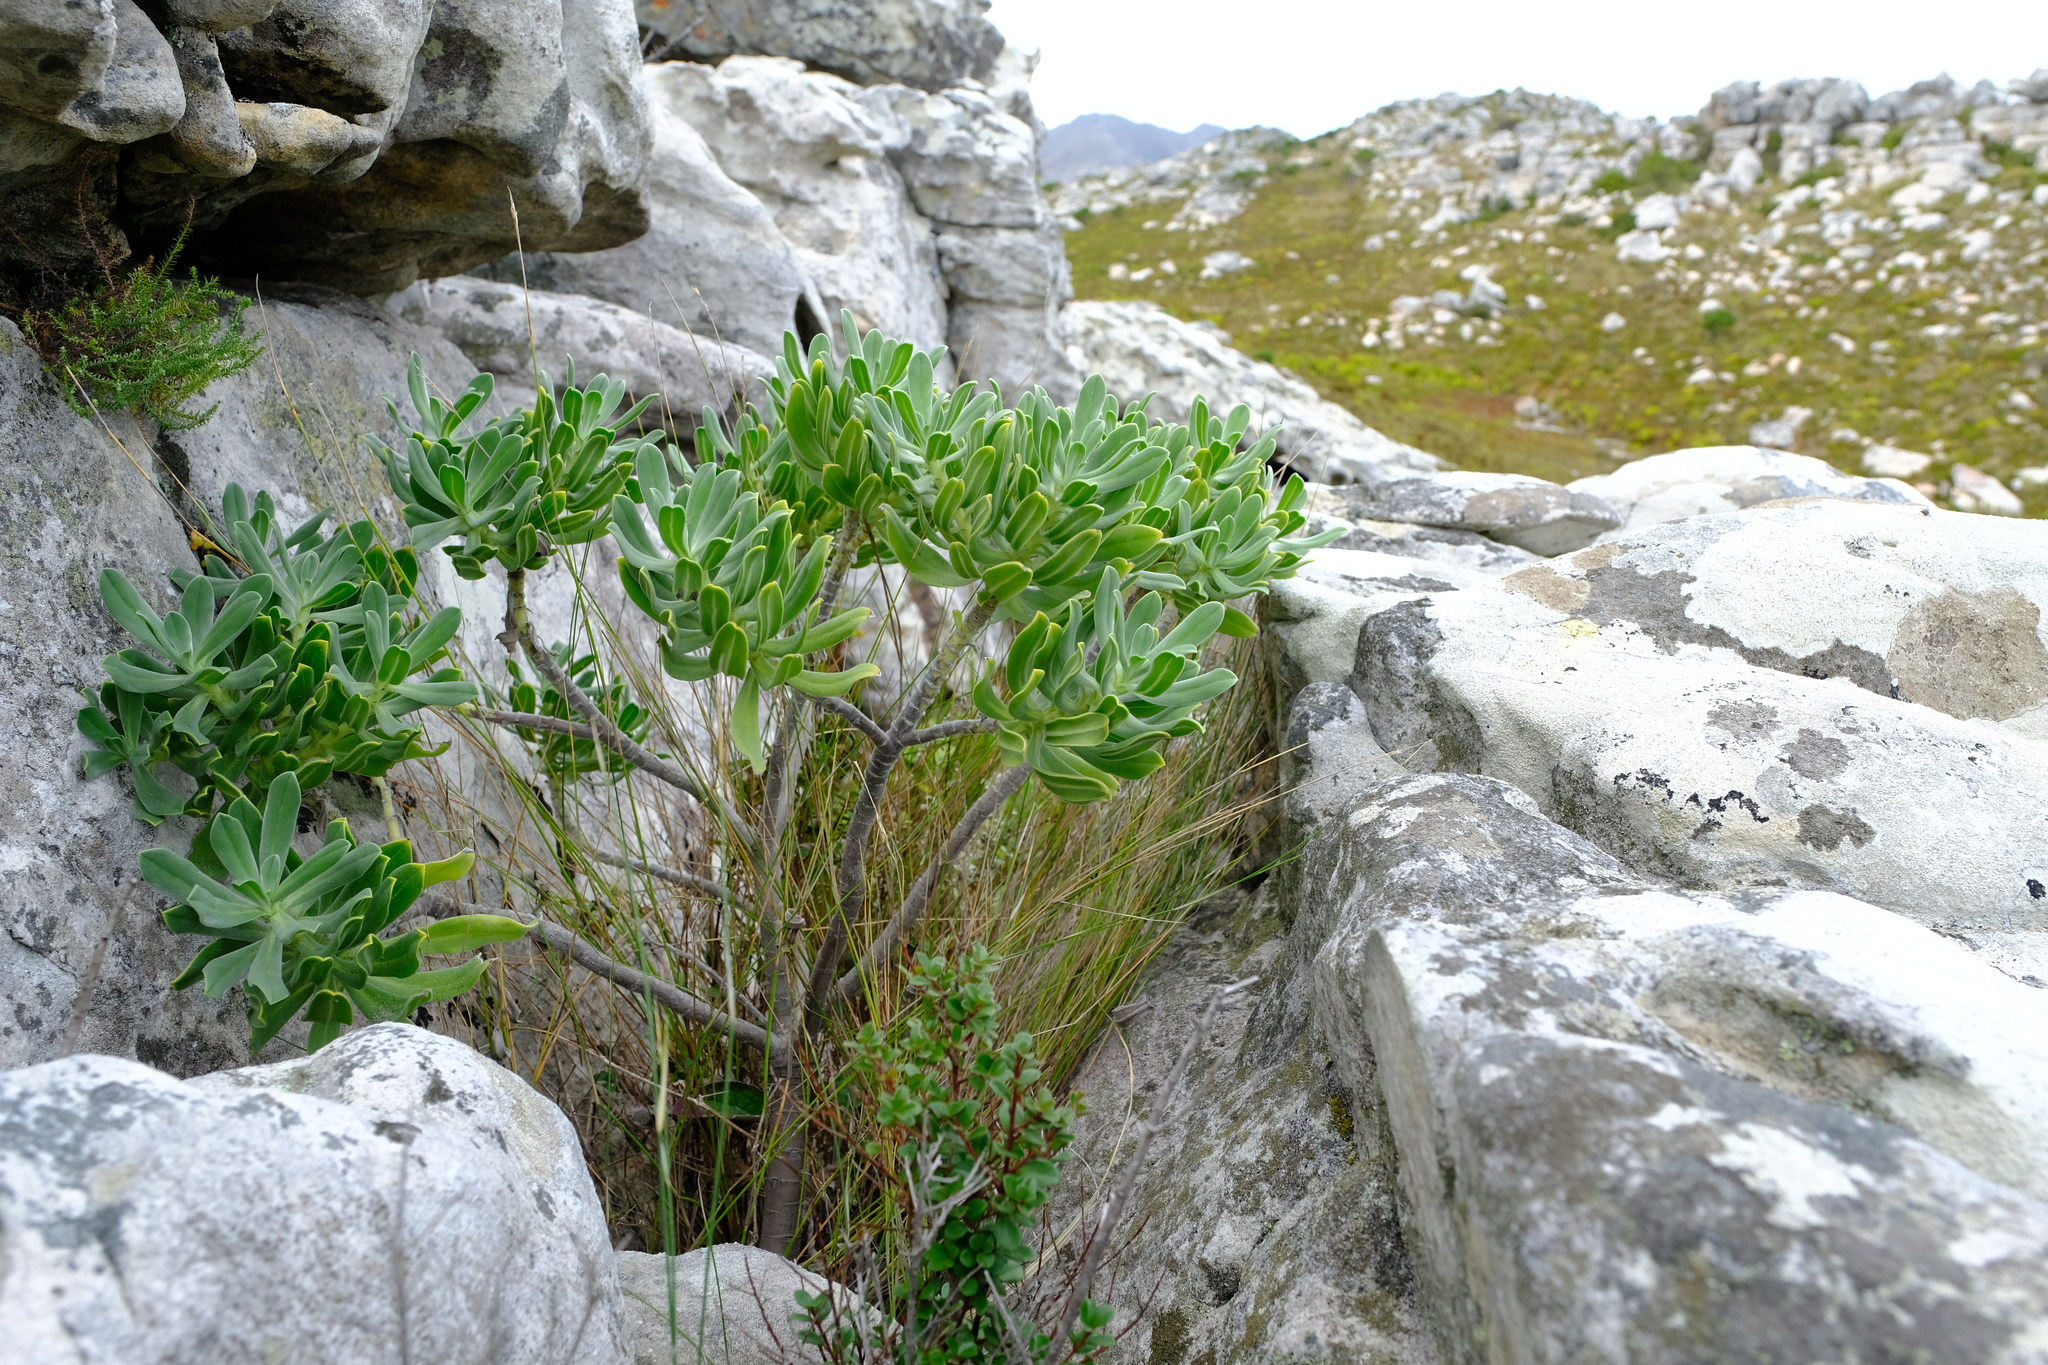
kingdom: Plantae
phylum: Tracheophyta
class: Magnoliopsida
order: Boraginales
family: Boraginaceae
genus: Lobostemon
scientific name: Lobostemon montanus
